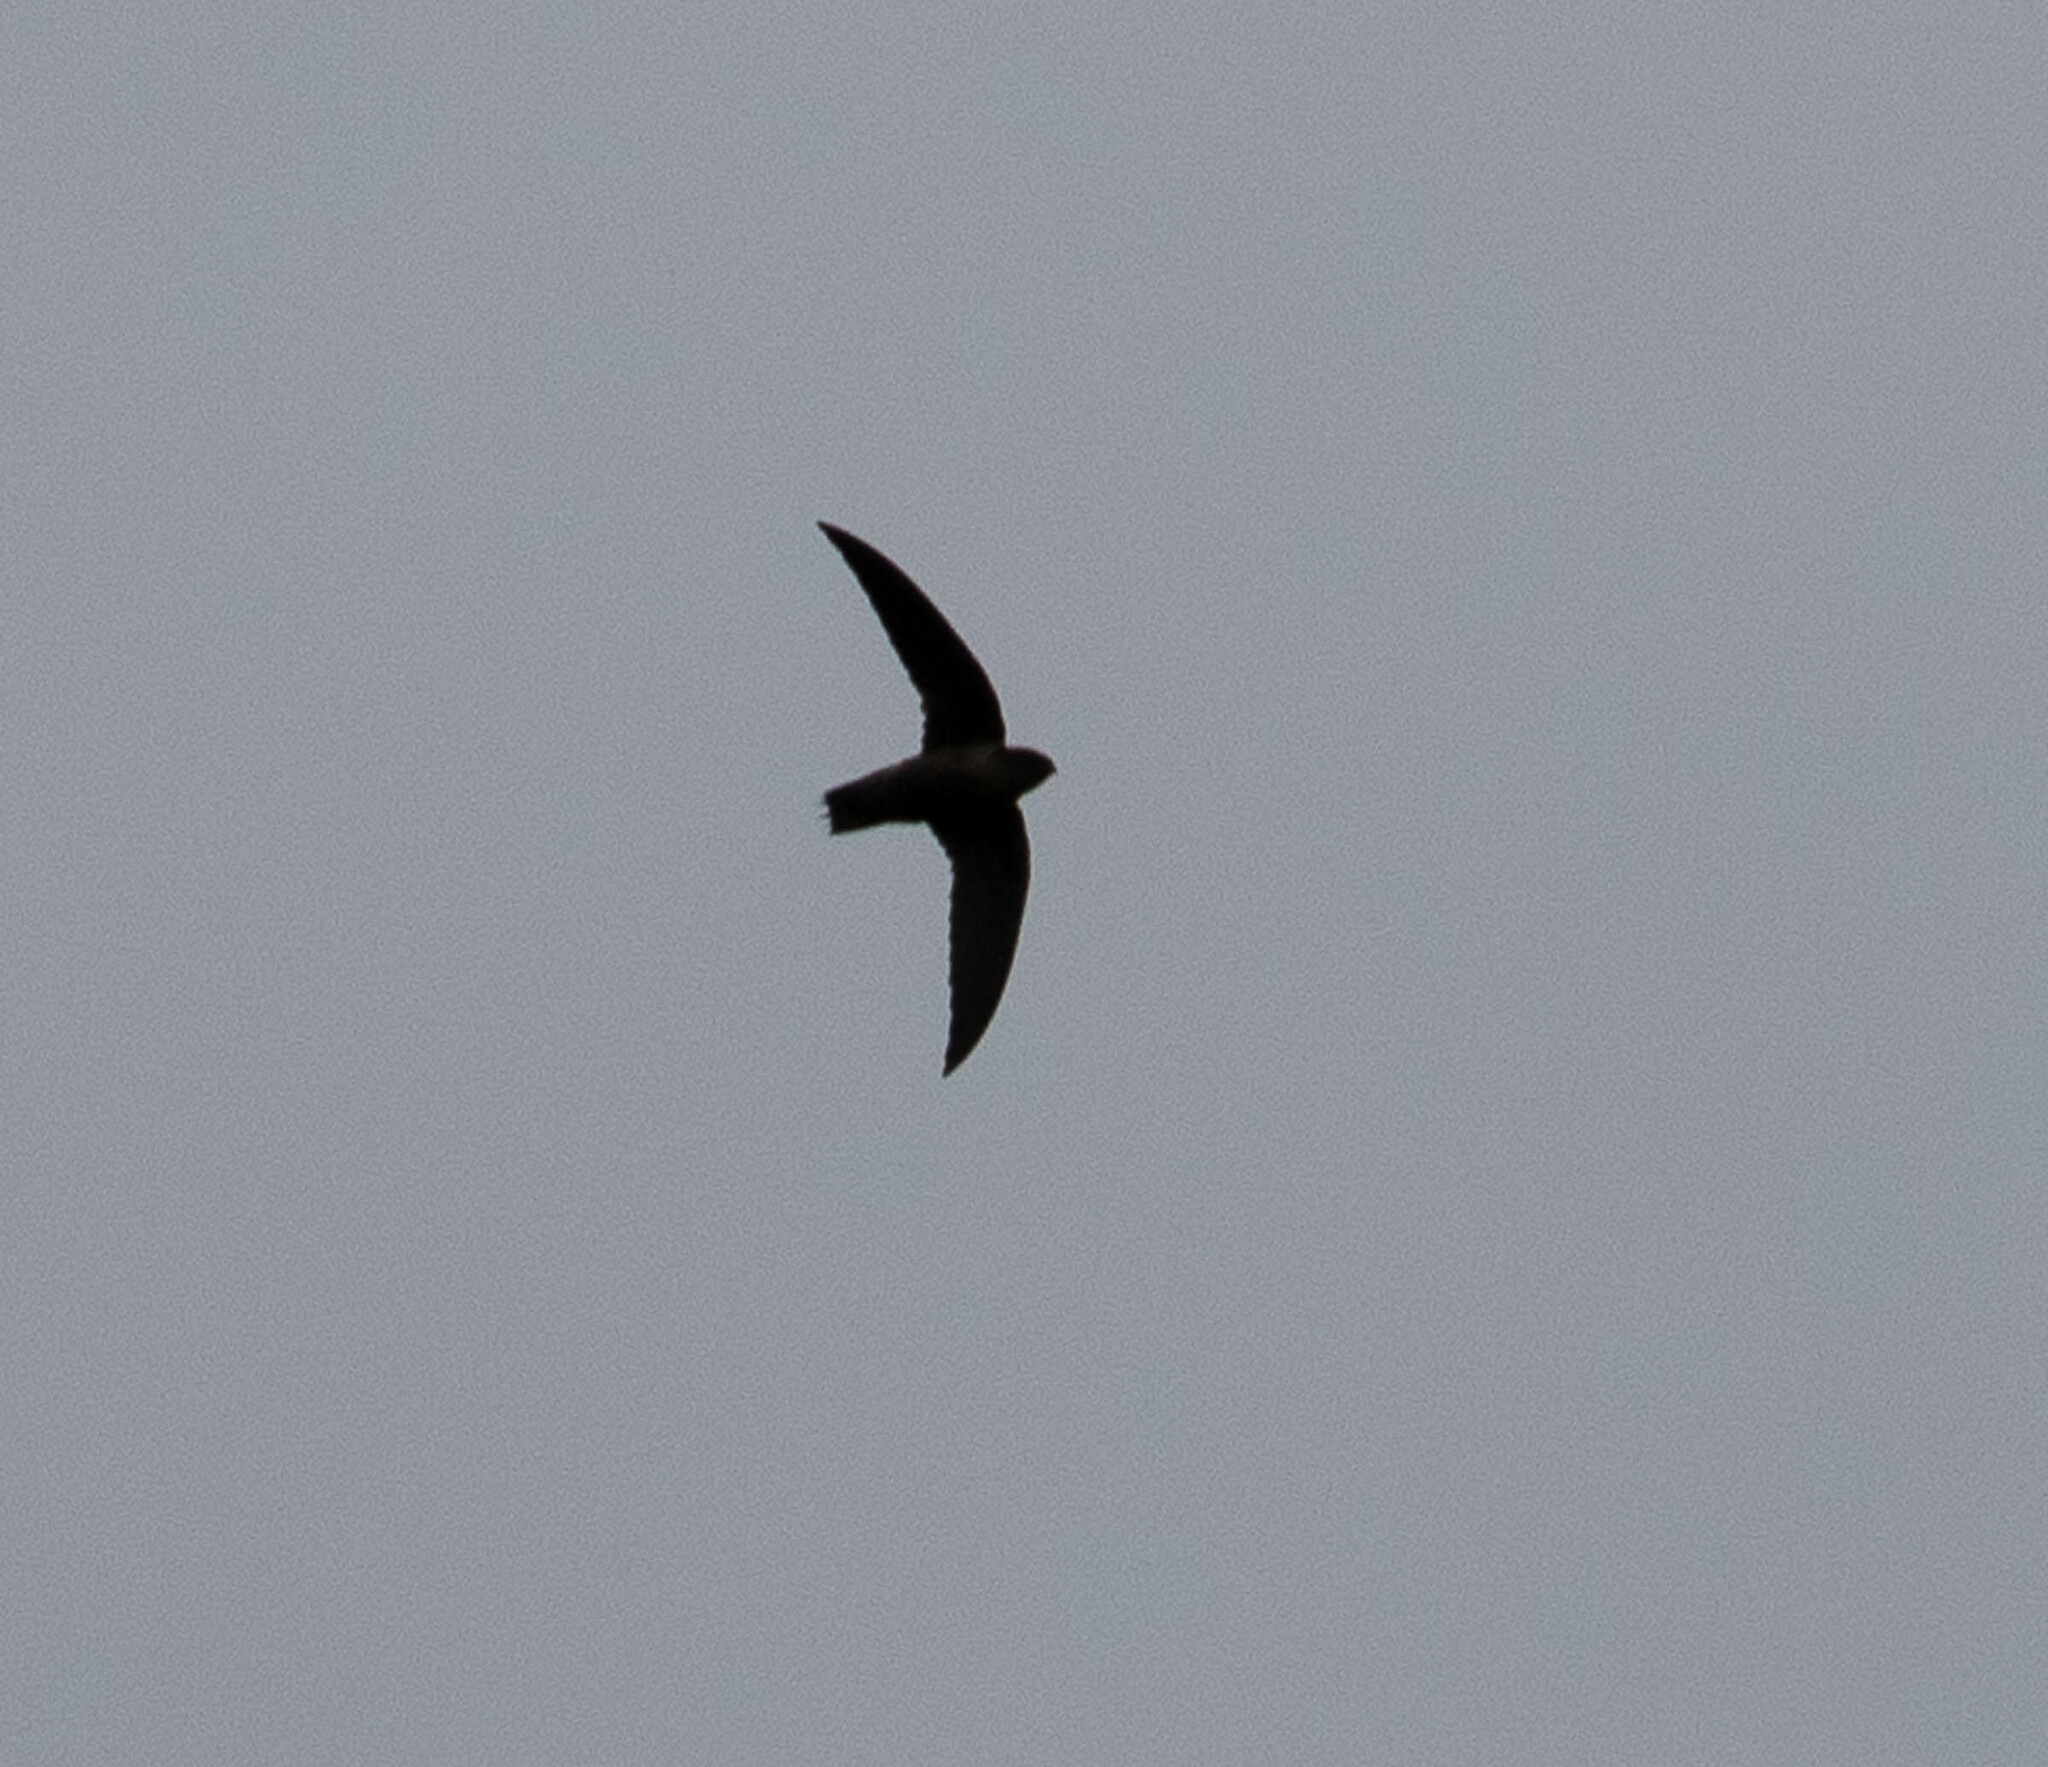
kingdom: Animalia
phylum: Chordata
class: Aves
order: Apodiformes
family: Apodidae
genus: Chaetura
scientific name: Chaetura pelagica
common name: Chimney swift
